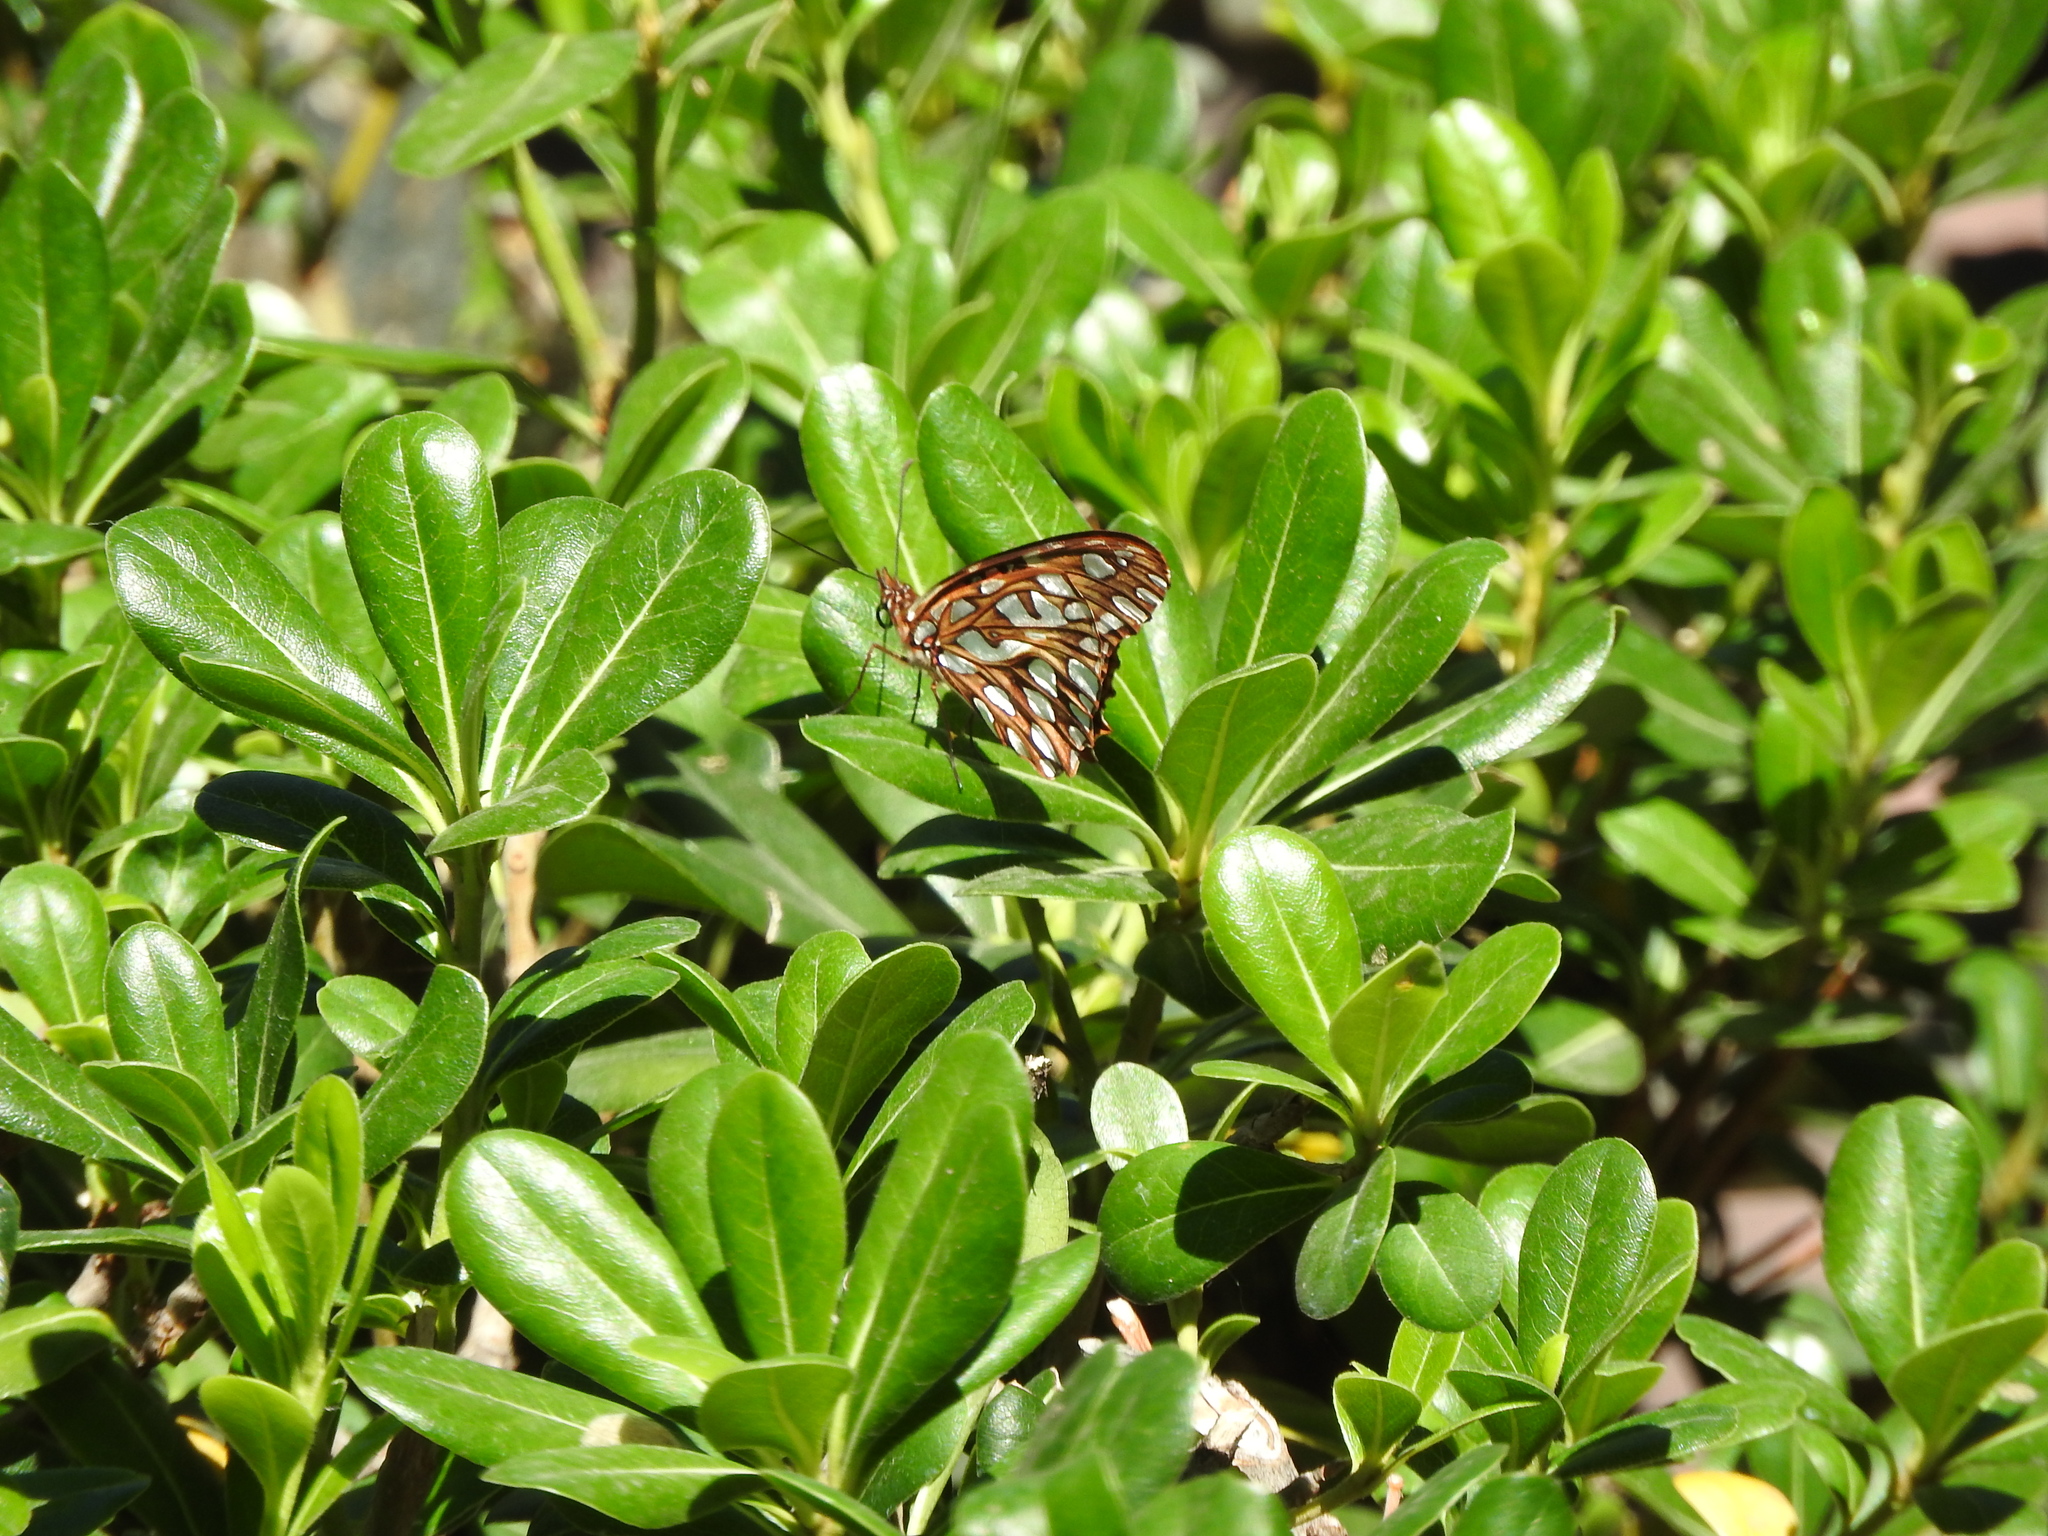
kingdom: Animalia
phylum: Arthropoda
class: Insecta
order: Lepidoptera
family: Nymphalidae
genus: Dione
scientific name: Dione moneta
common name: Mexican silverspot
